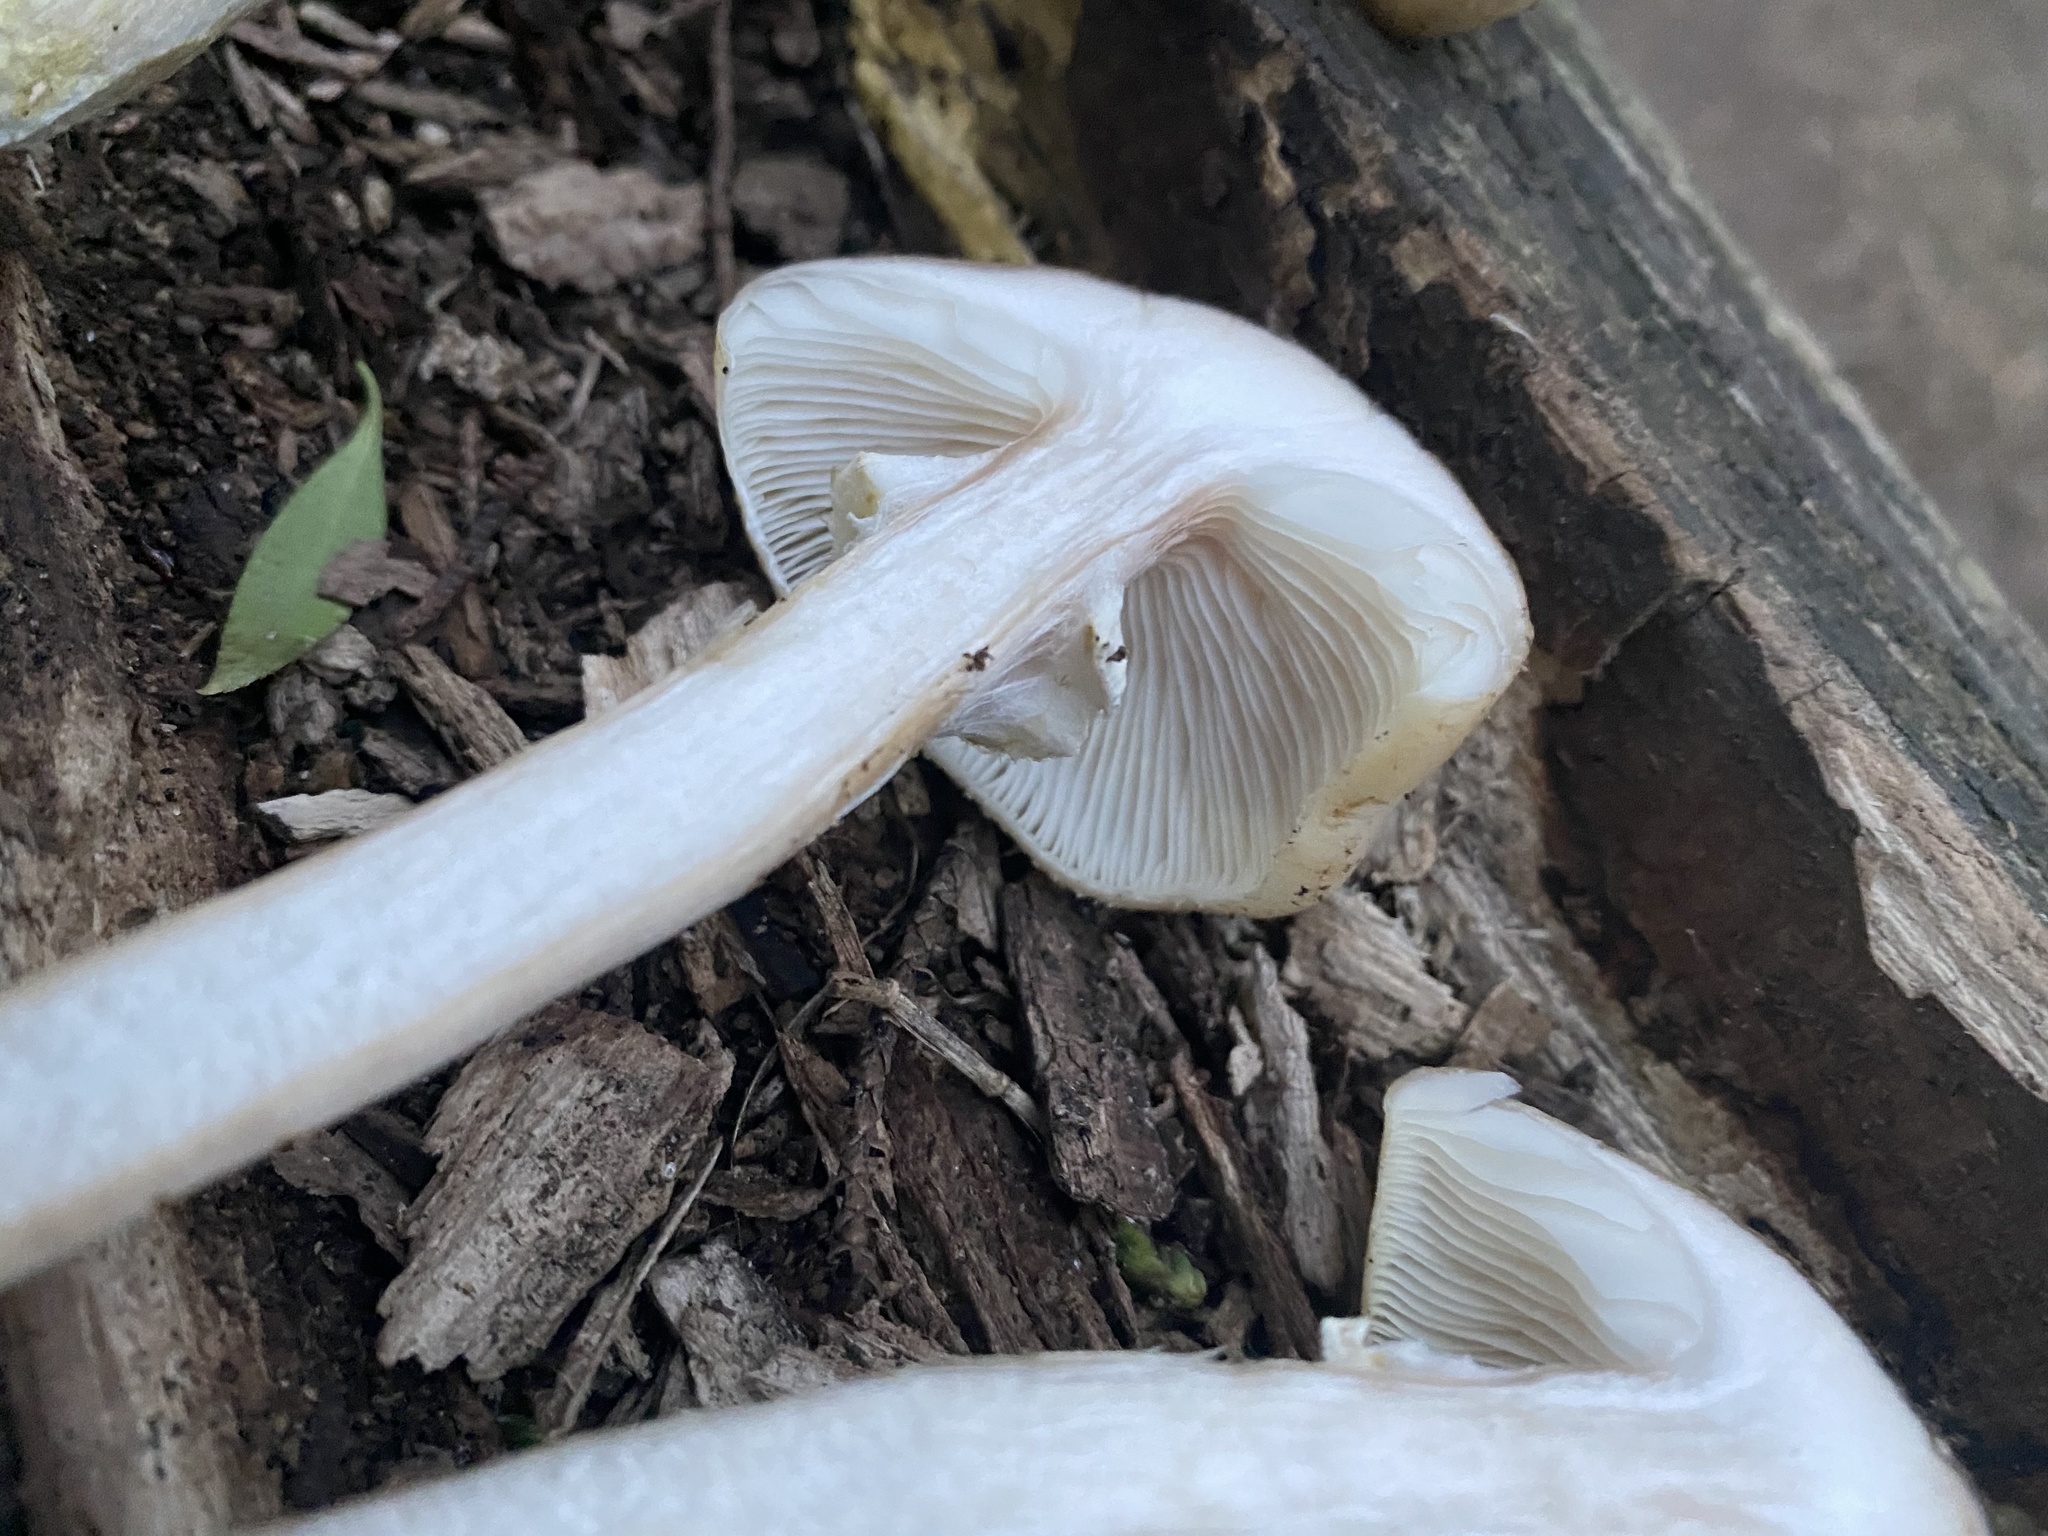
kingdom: Fungi
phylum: Basidiomycota
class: Agaricomycetes
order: Agaricales
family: Physalacriaceae
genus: Armillaria
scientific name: Armillaria mellea
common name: Honey fungus
